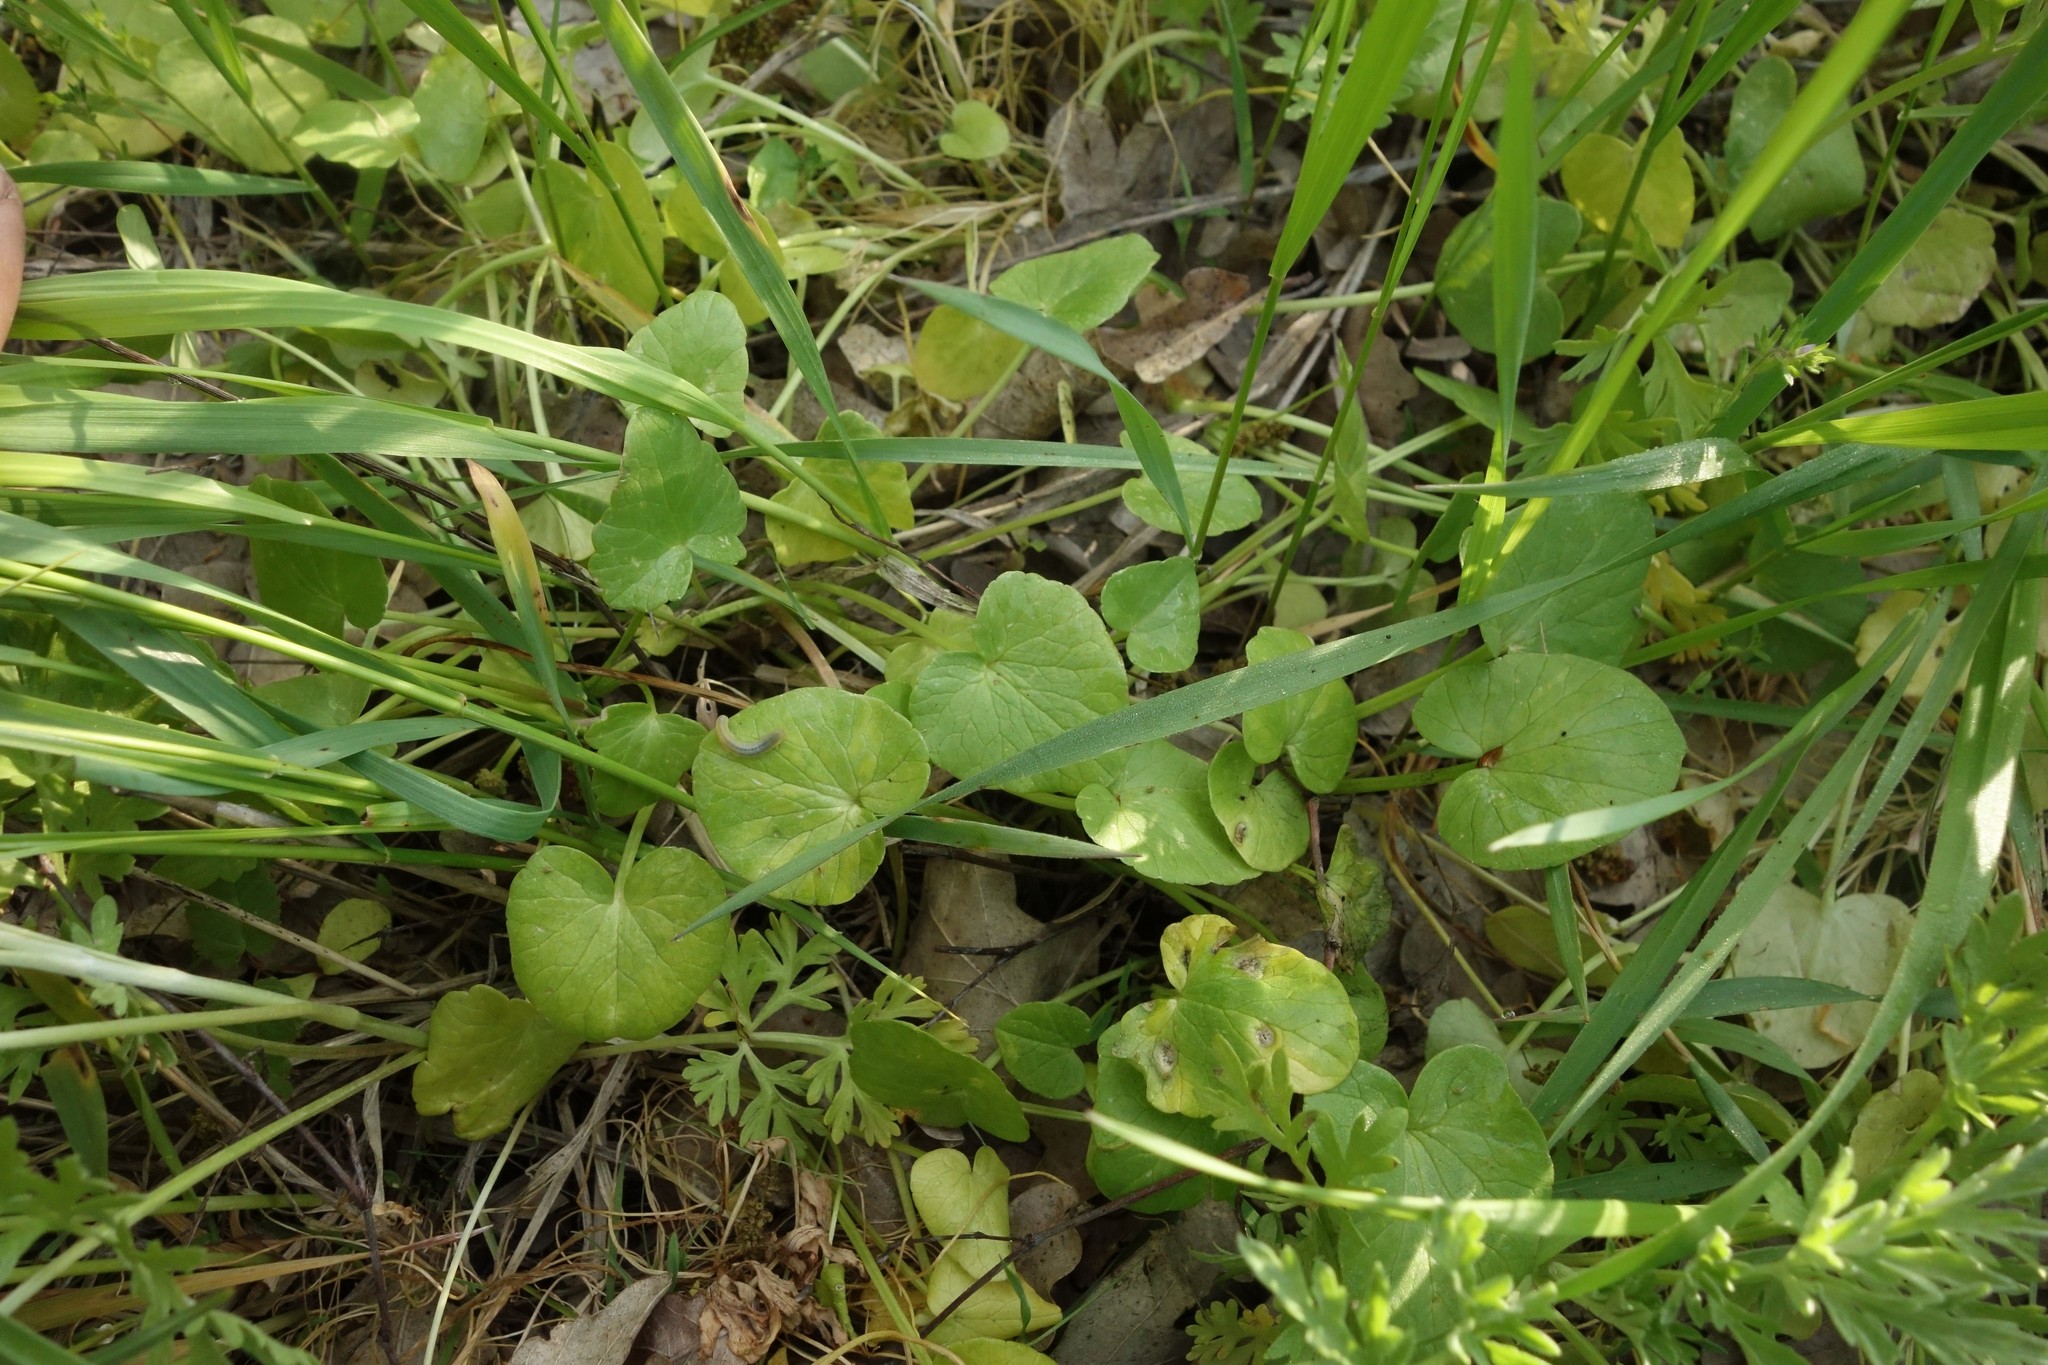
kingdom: Plantae
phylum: Tracheophyta
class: Magnoliopsida
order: Ranunculales
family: Ranunculaceae
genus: Ficaria
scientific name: Ficaria verna
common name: Lesser celandine
